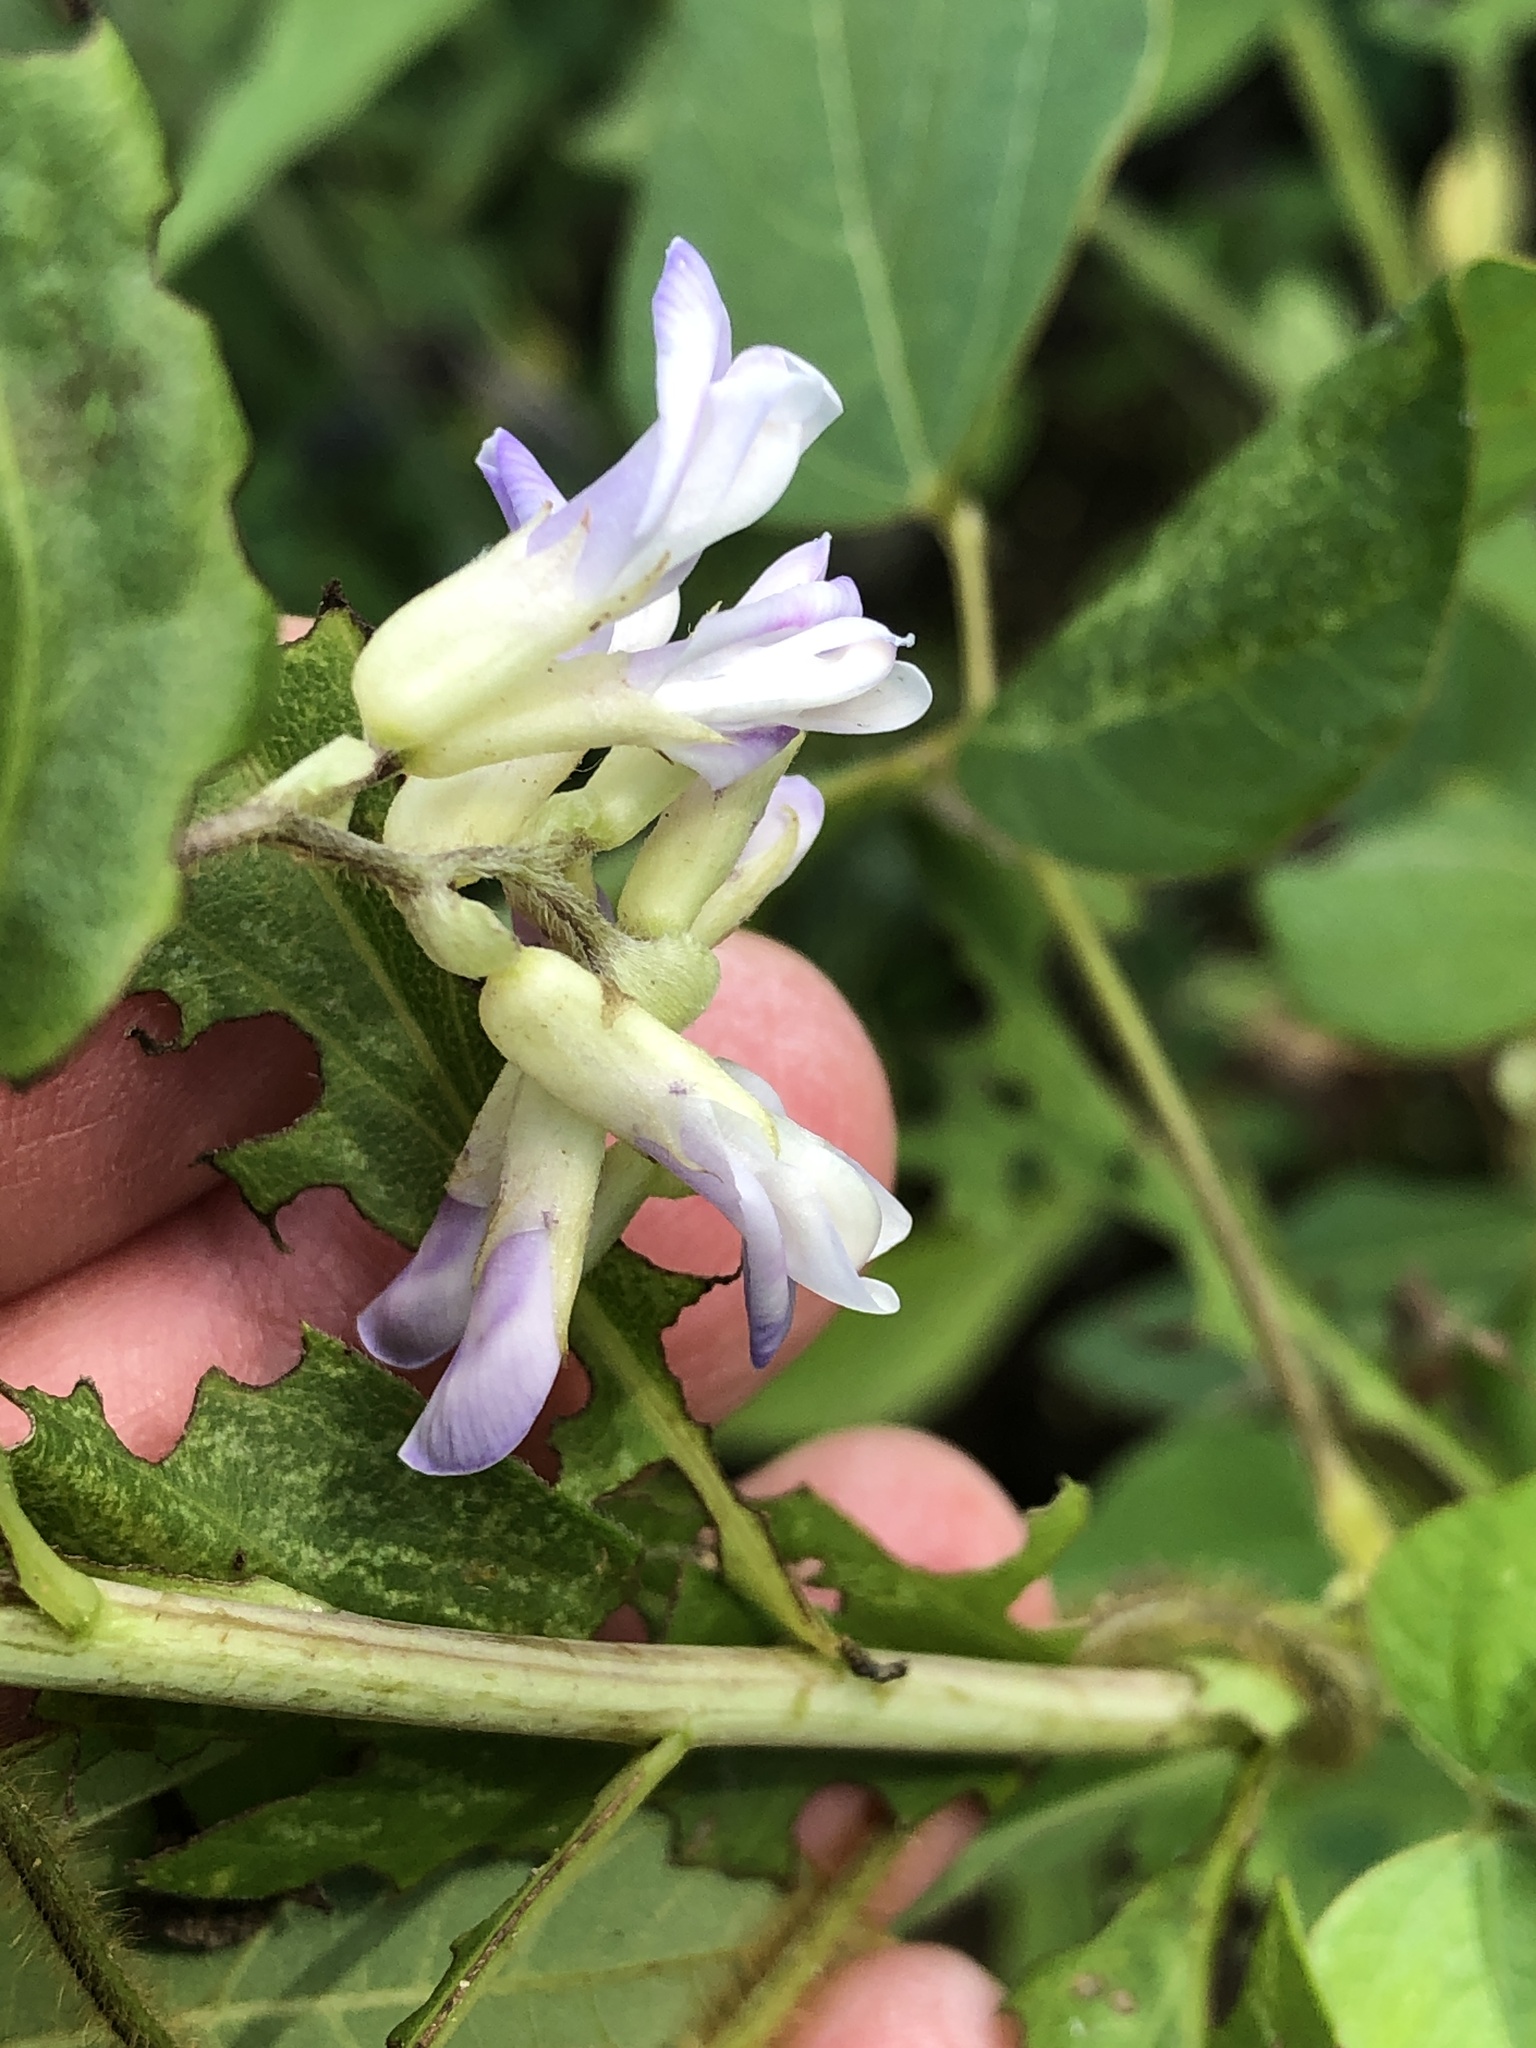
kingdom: Plantae
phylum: Tracheophyta
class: Magnoliopsida
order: Fabales
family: Fabaceae
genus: Amphicarpaea
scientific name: Amphicarpaea bracteata
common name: American hog peanut
